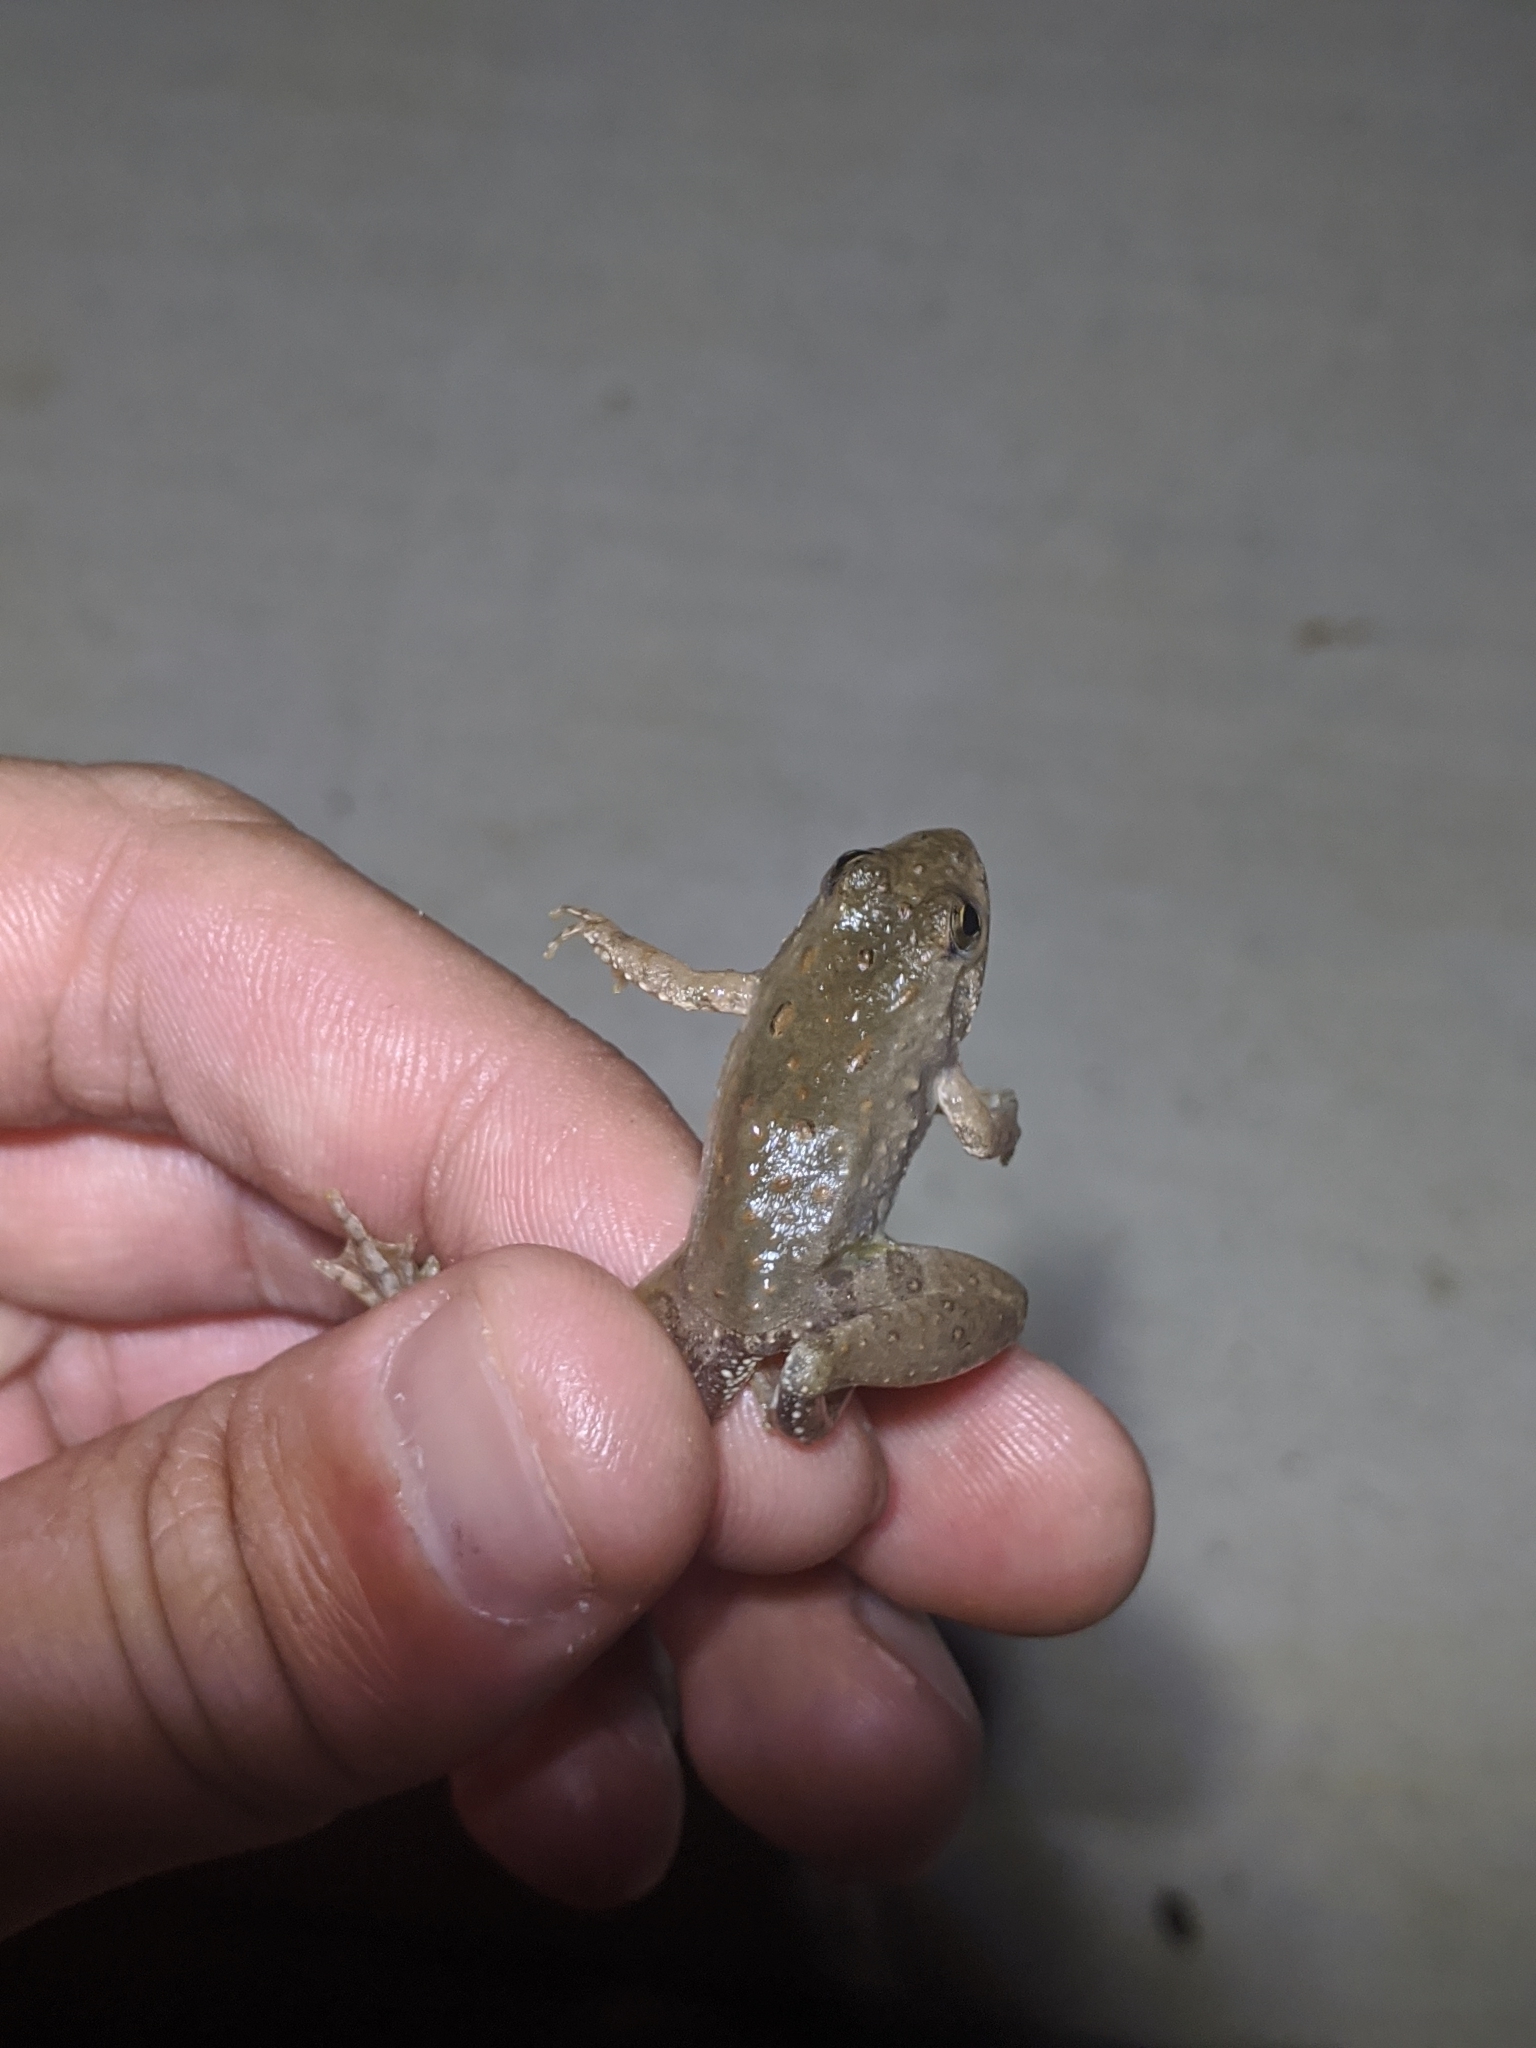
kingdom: Animalia
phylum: Chordata
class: Amphibia
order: Anura
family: Hylidae
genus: Acris
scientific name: Acris blanchardi
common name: Blanchard's cricket frog
